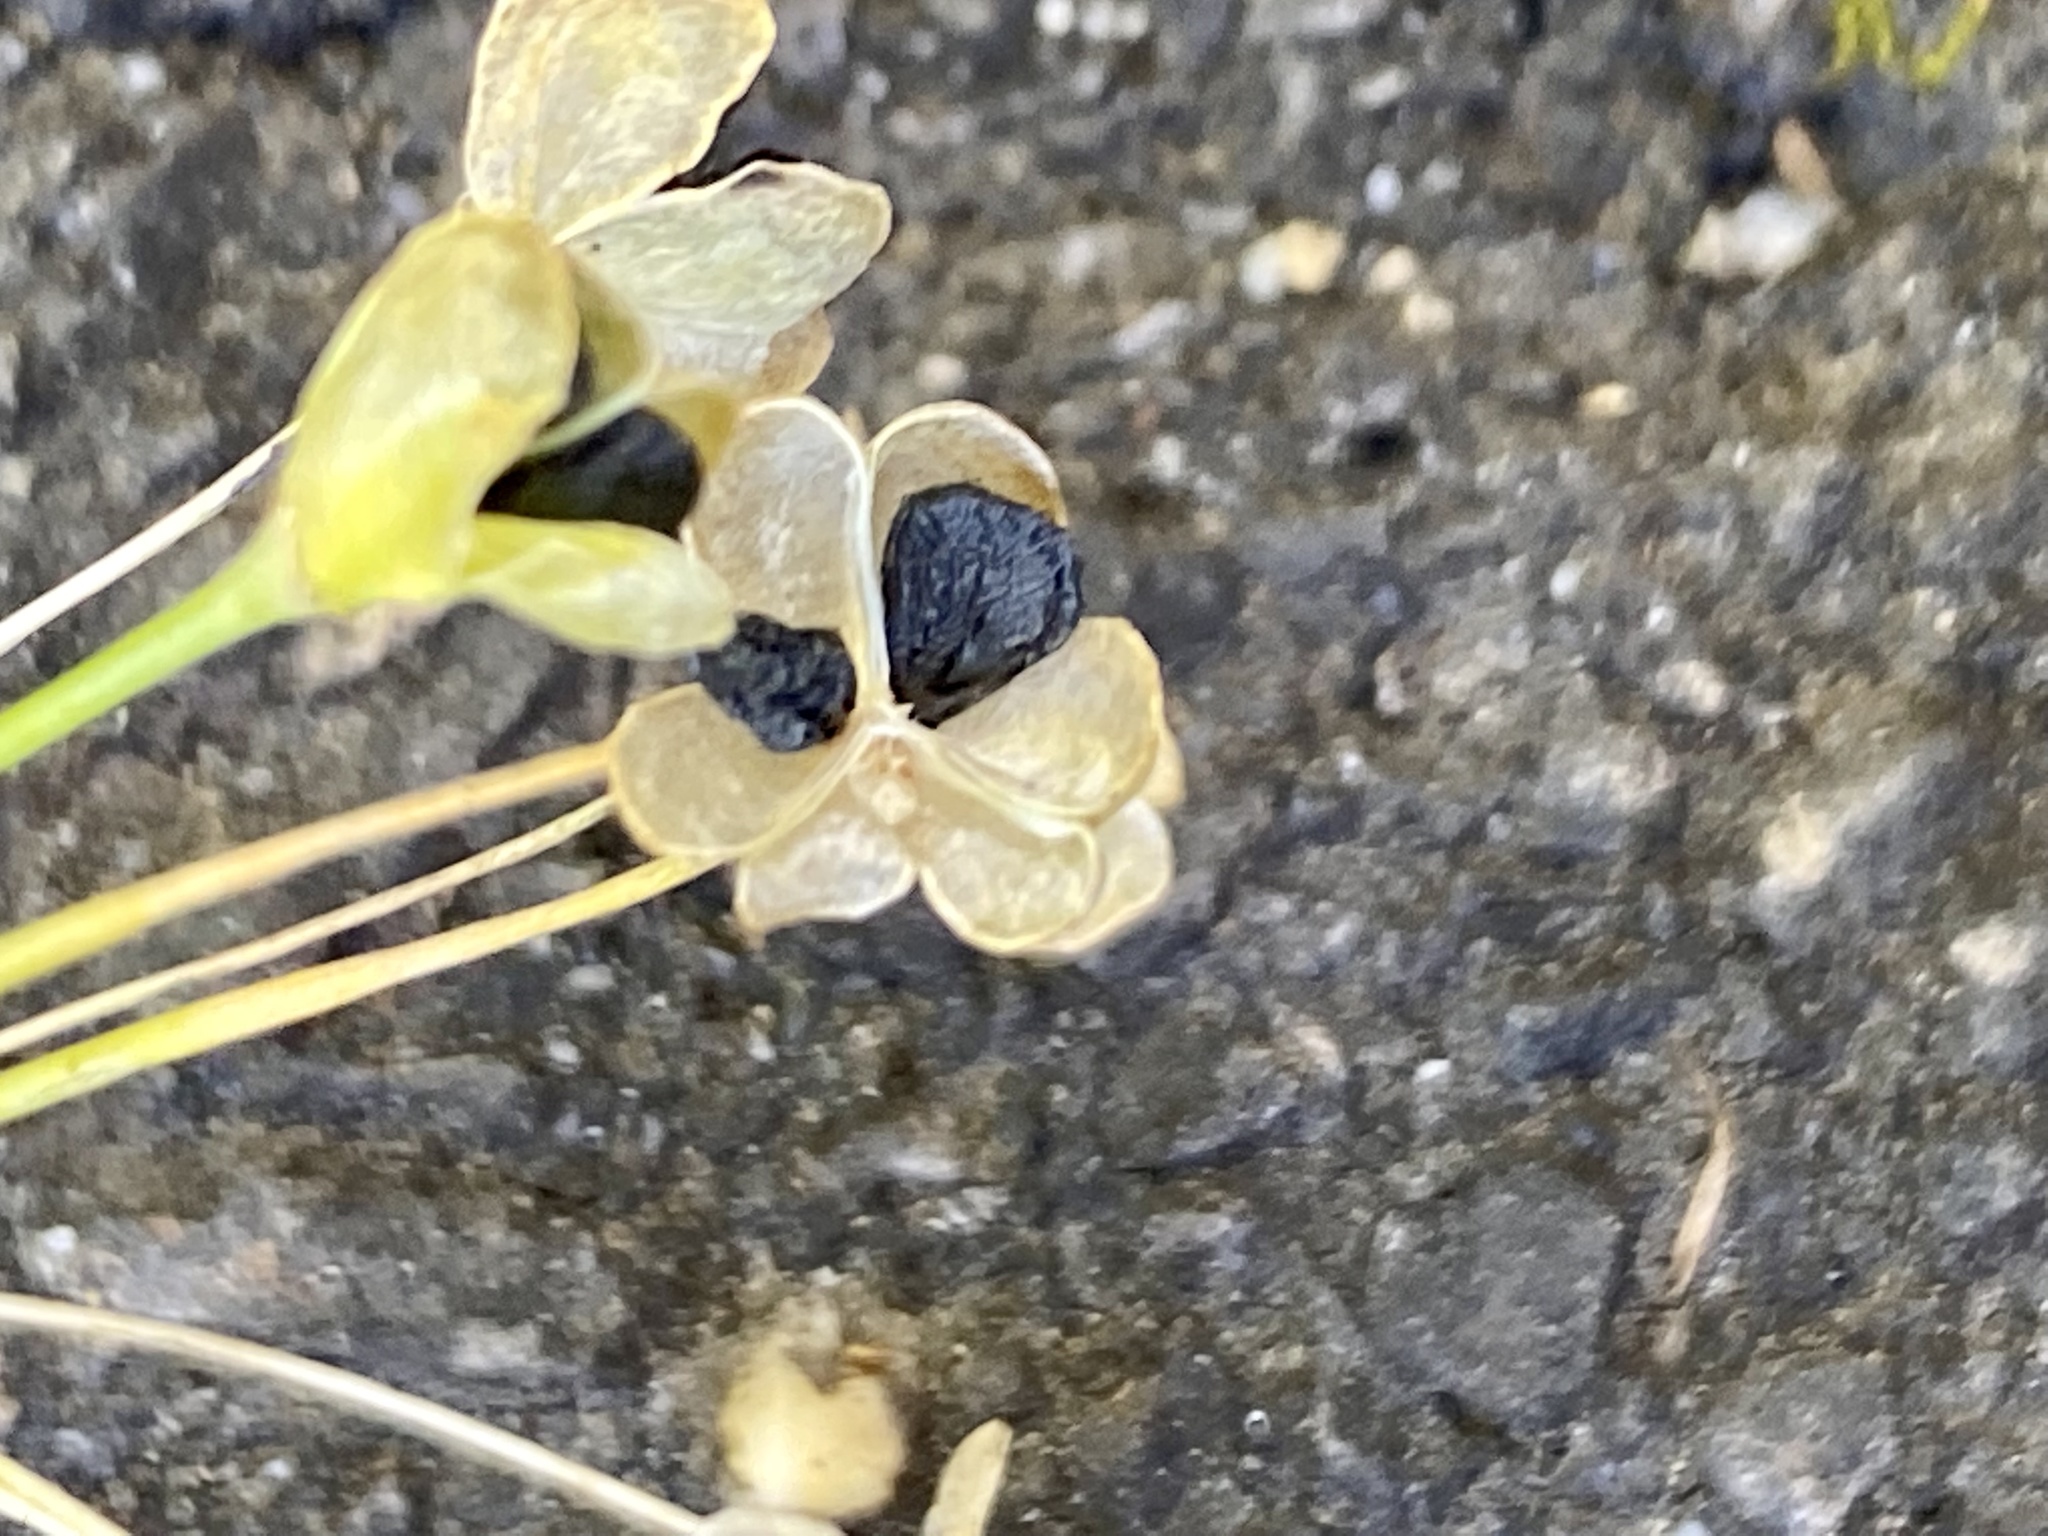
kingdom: Plantae
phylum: Tracheophyta
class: Liliopsida
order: Asparagales
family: Amaryllidaceae
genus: Allium
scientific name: Allium tuberosum
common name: Chinese chives
